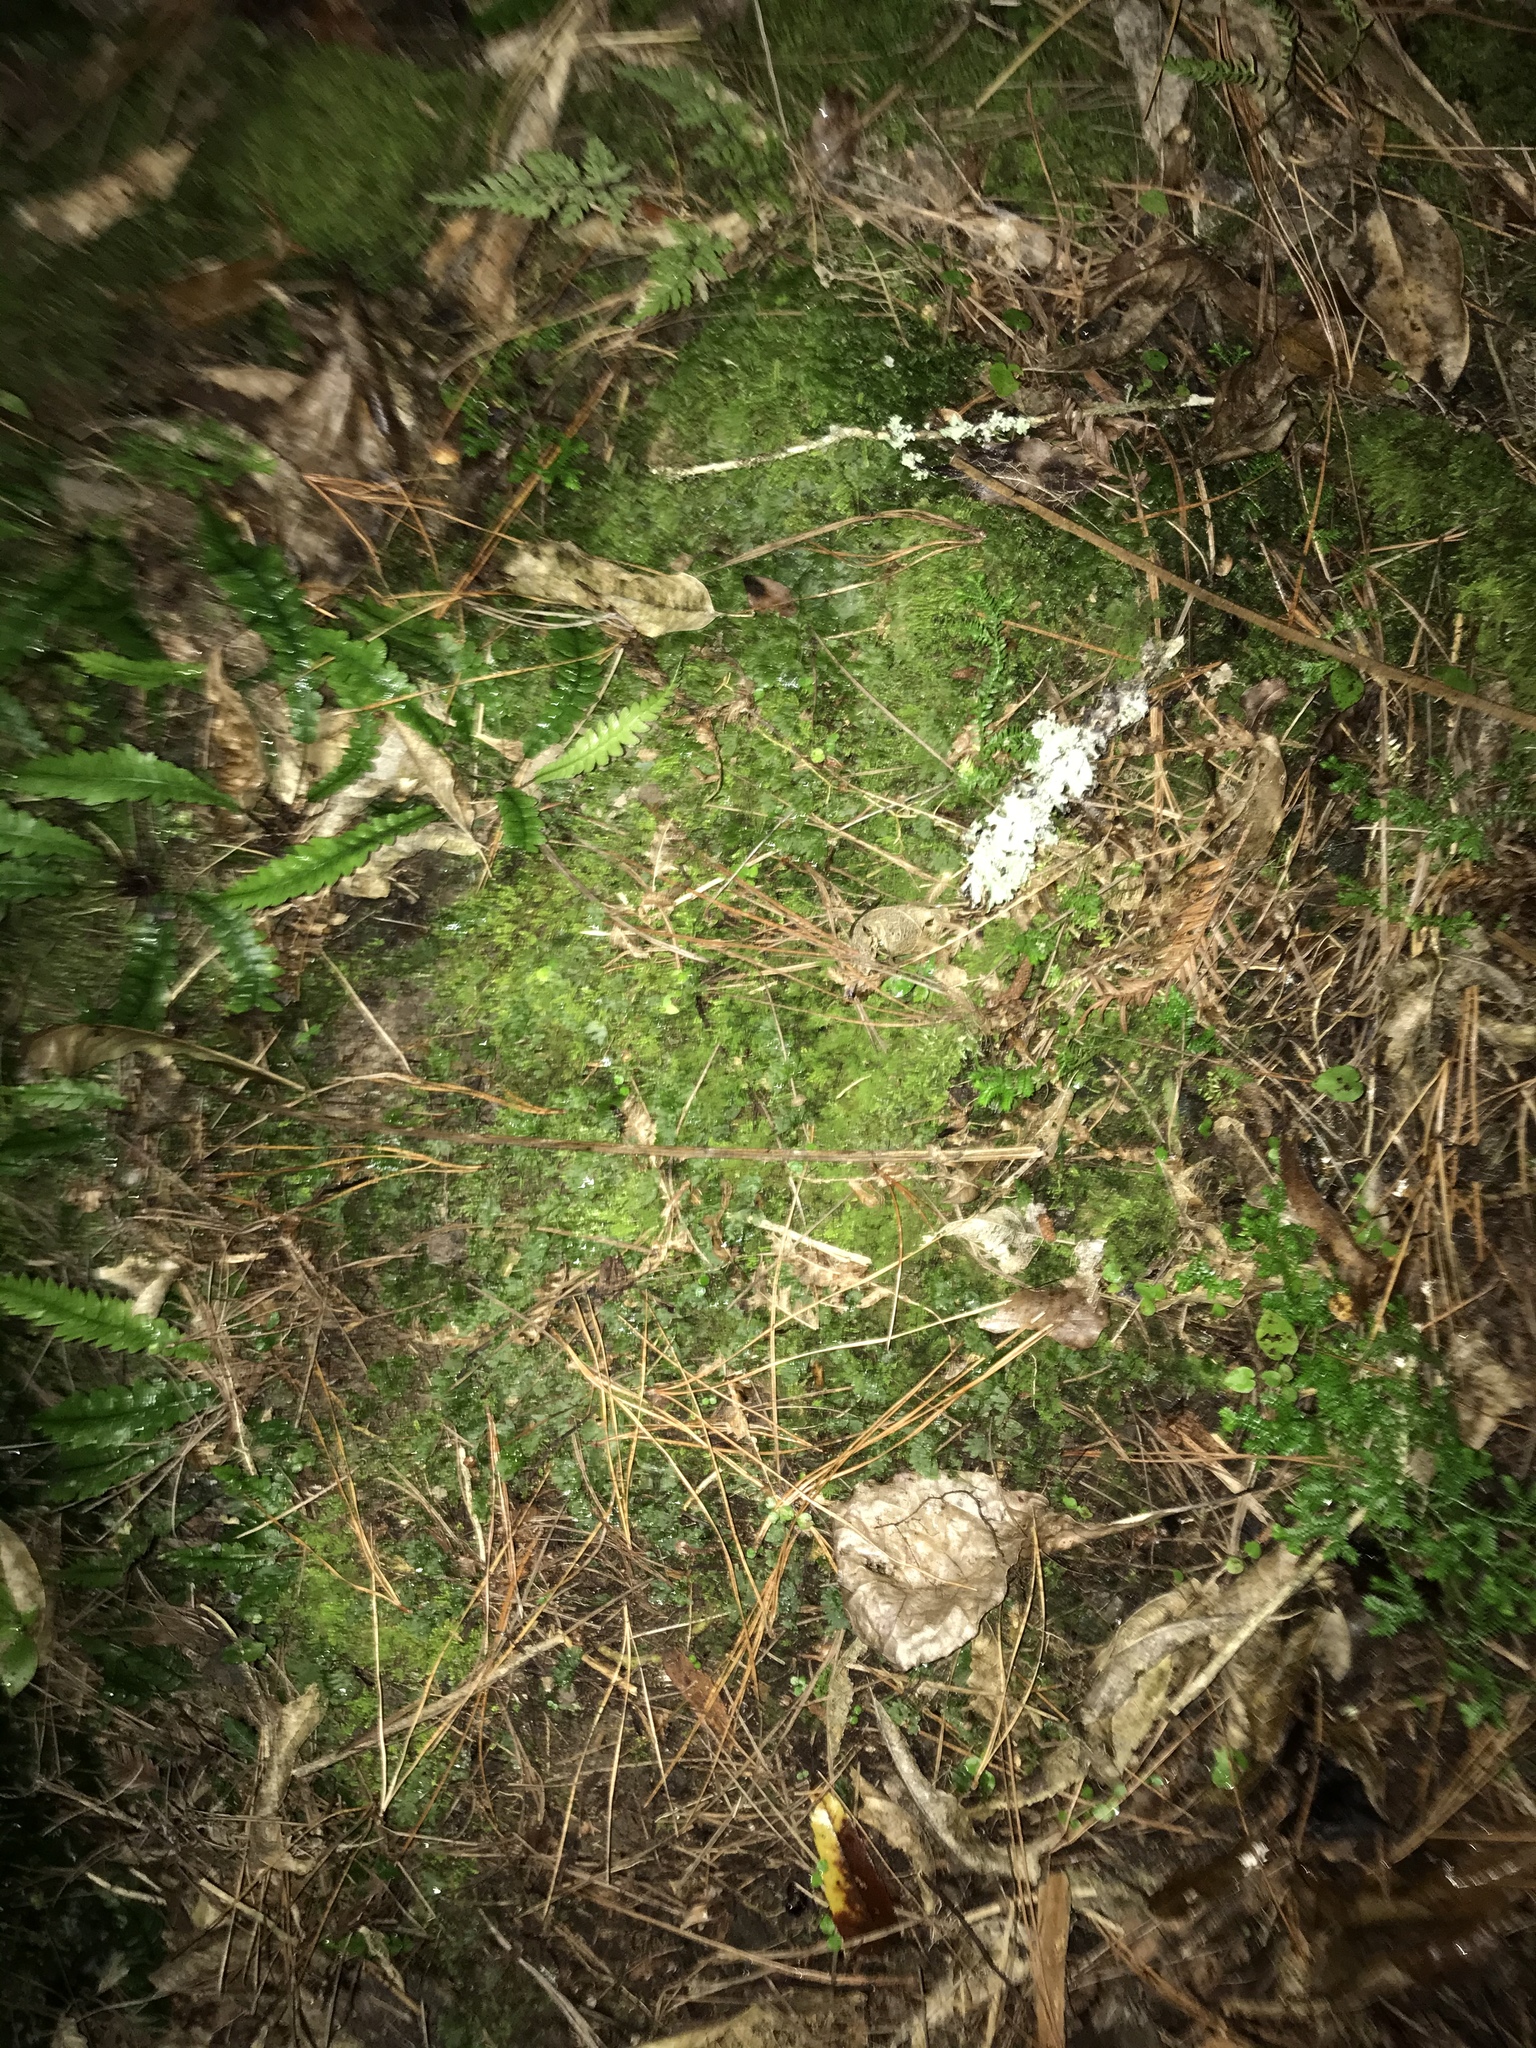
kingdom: Plantae
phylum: Tracheophyta
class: Lycopodiopsida
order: Selaginellales
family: Selaginellaceae
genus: Selaginella
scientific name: Selaginella kraussiana
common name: Krauss' spikemoss
